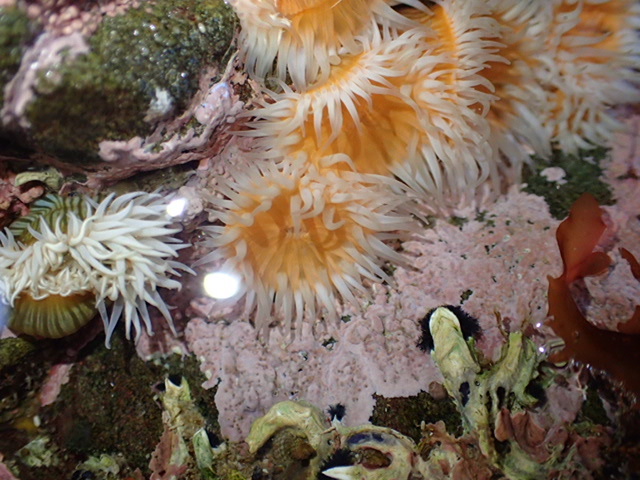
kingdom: Animalia
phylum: Cnidaria
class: Anthozoa
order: Actiniaria
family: Sagartiidae
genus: Anthothoe
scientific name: Anthothoe albocincta
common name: Orange striped anemone
